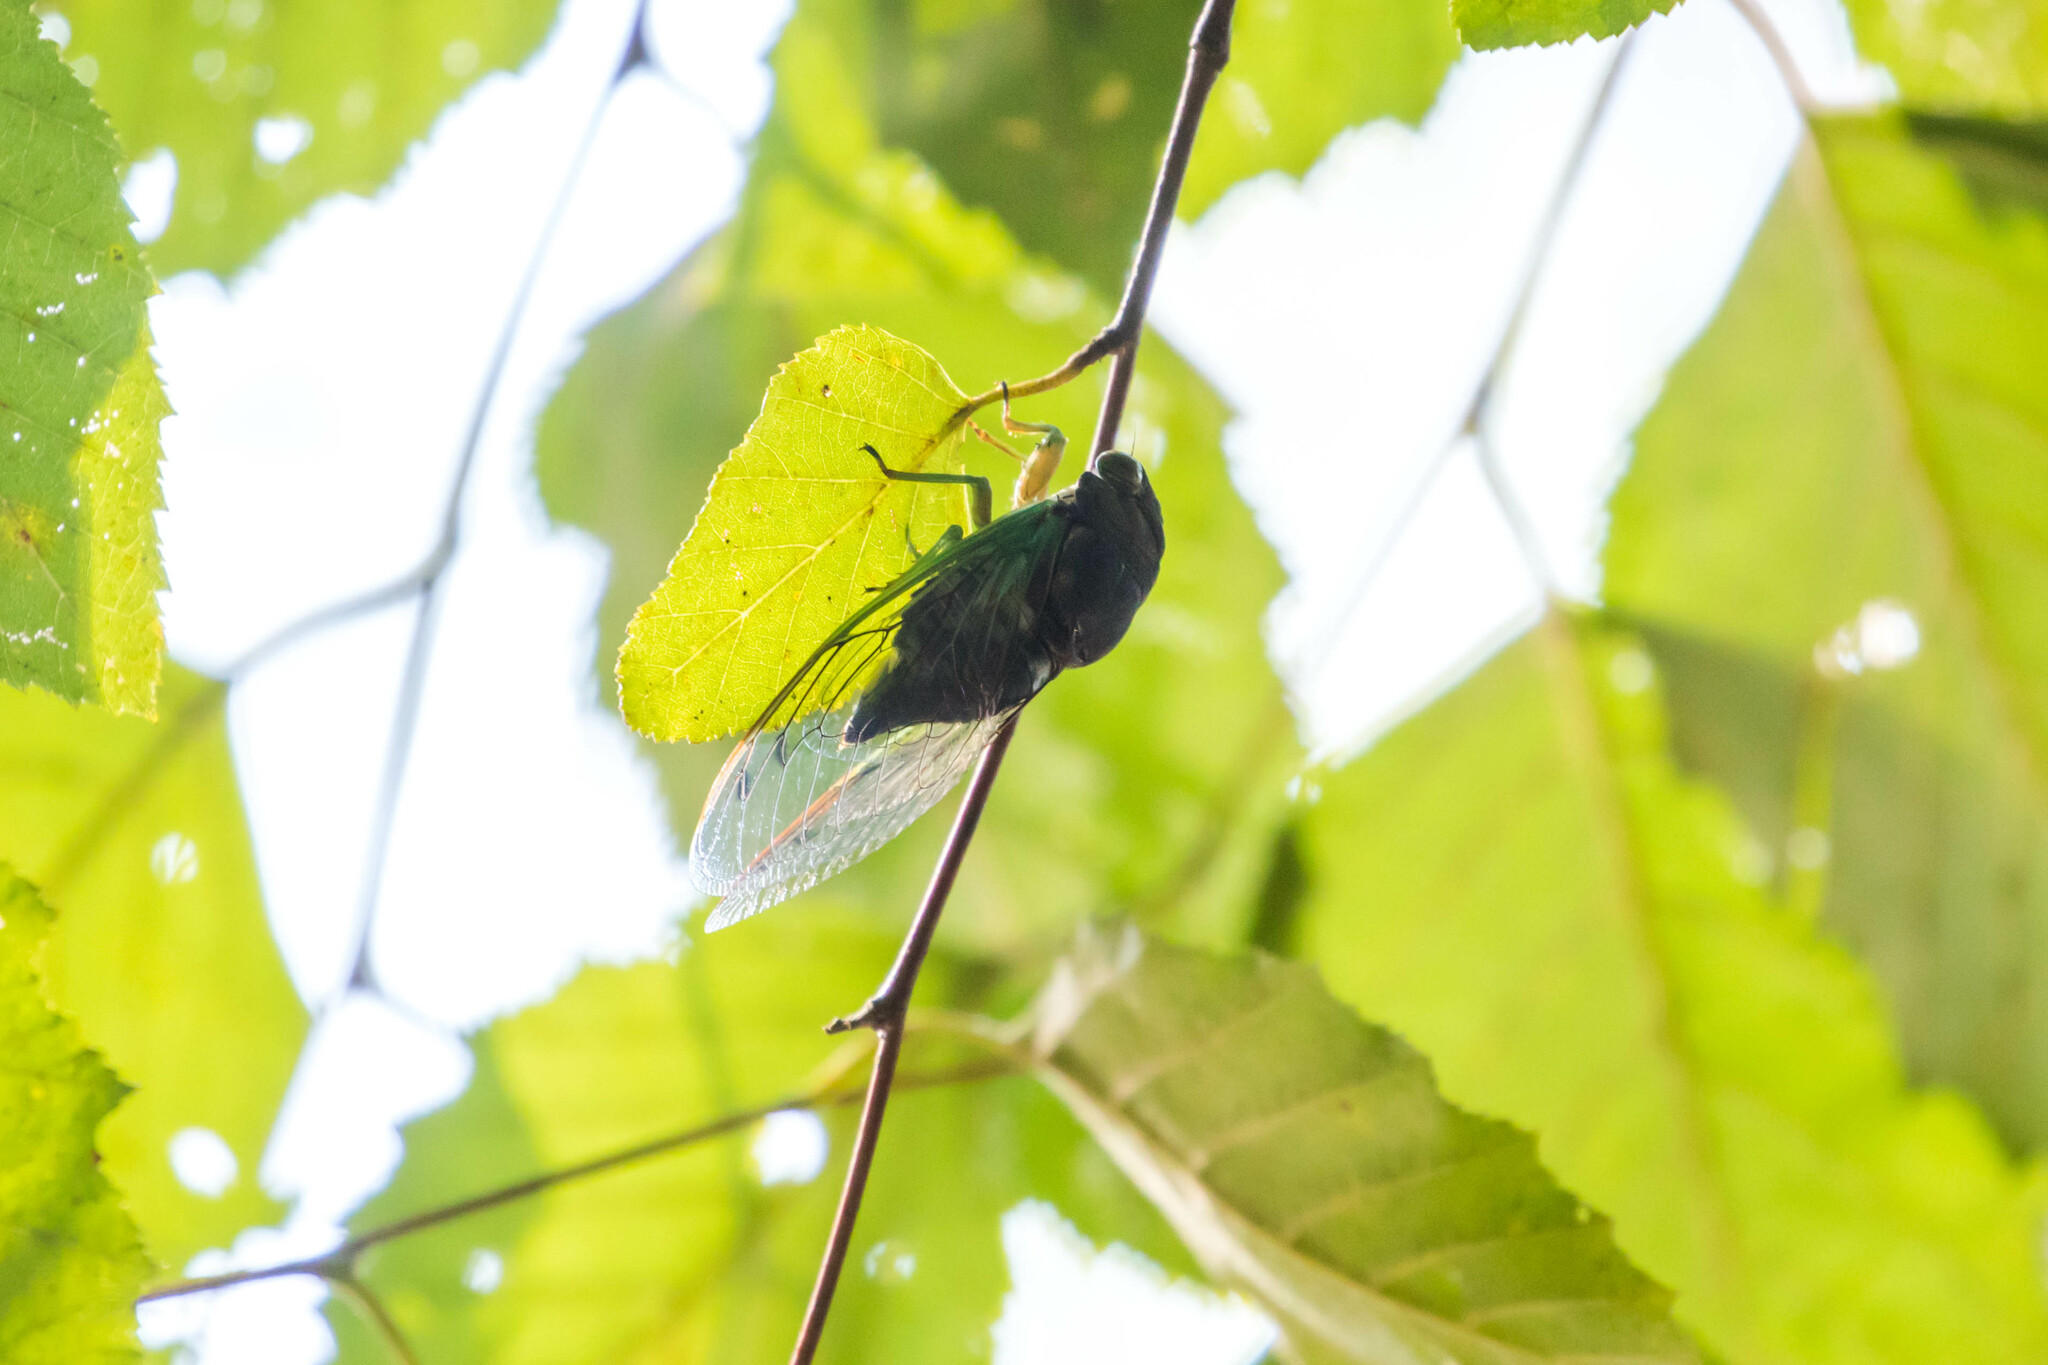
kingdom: Animalia
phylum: Arthropoda
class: Insecta
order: Hemiptera
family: Cicadidae
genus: Neotibicen
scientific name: Neotibicen tibicen
